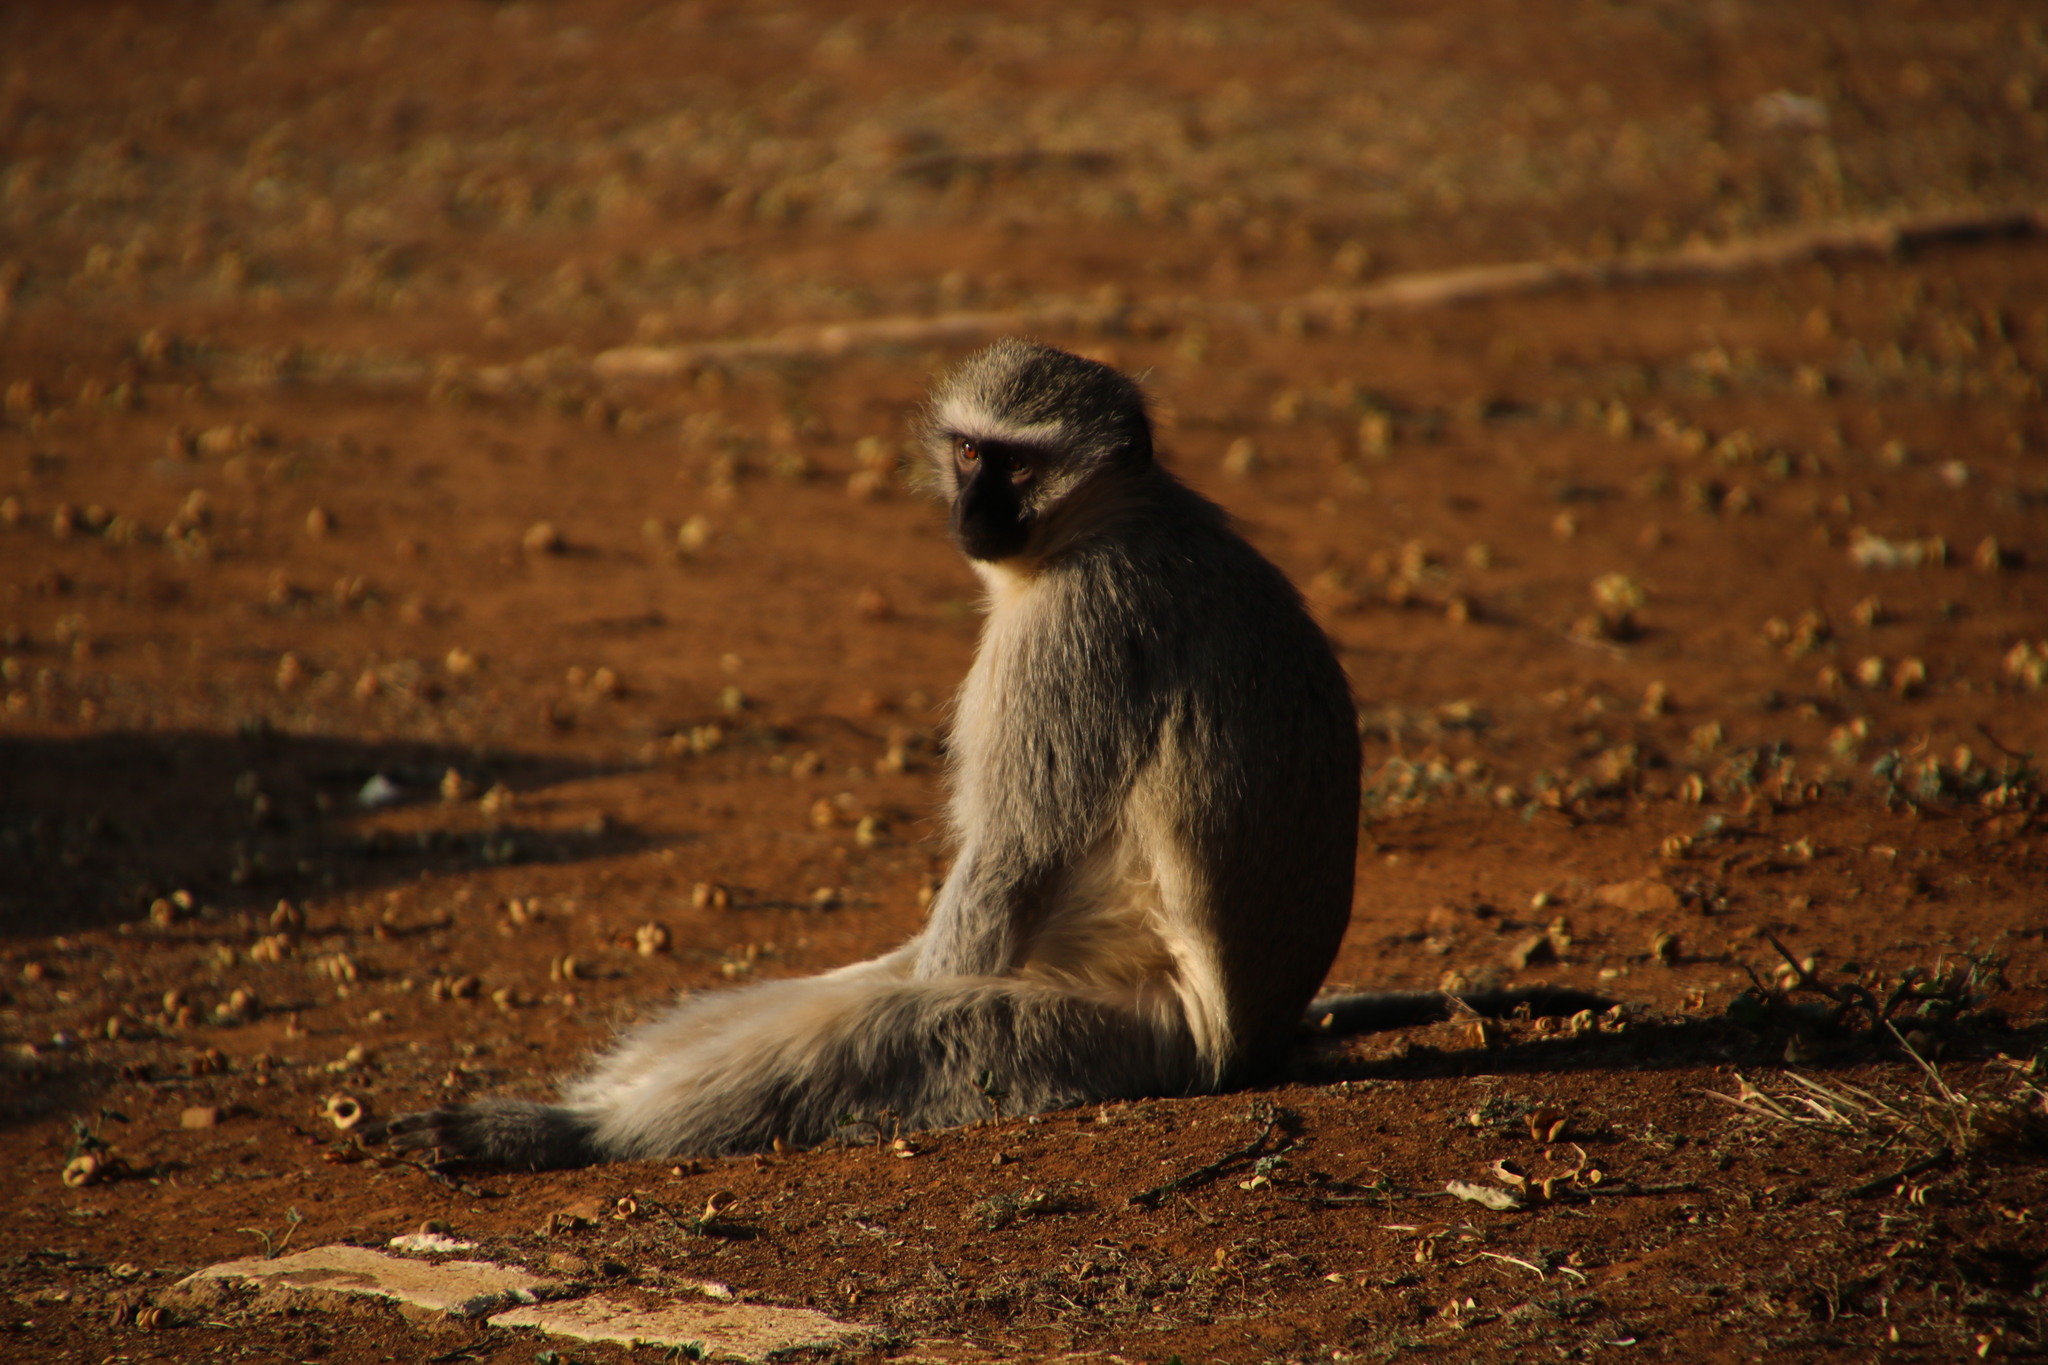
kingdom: Animalia
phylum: Chordata
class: Mammalia
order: Primates
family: Cercopithecidae
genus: Chlorocebus
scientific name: Chlorocebus pygerythrus
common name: Vervet monkey
